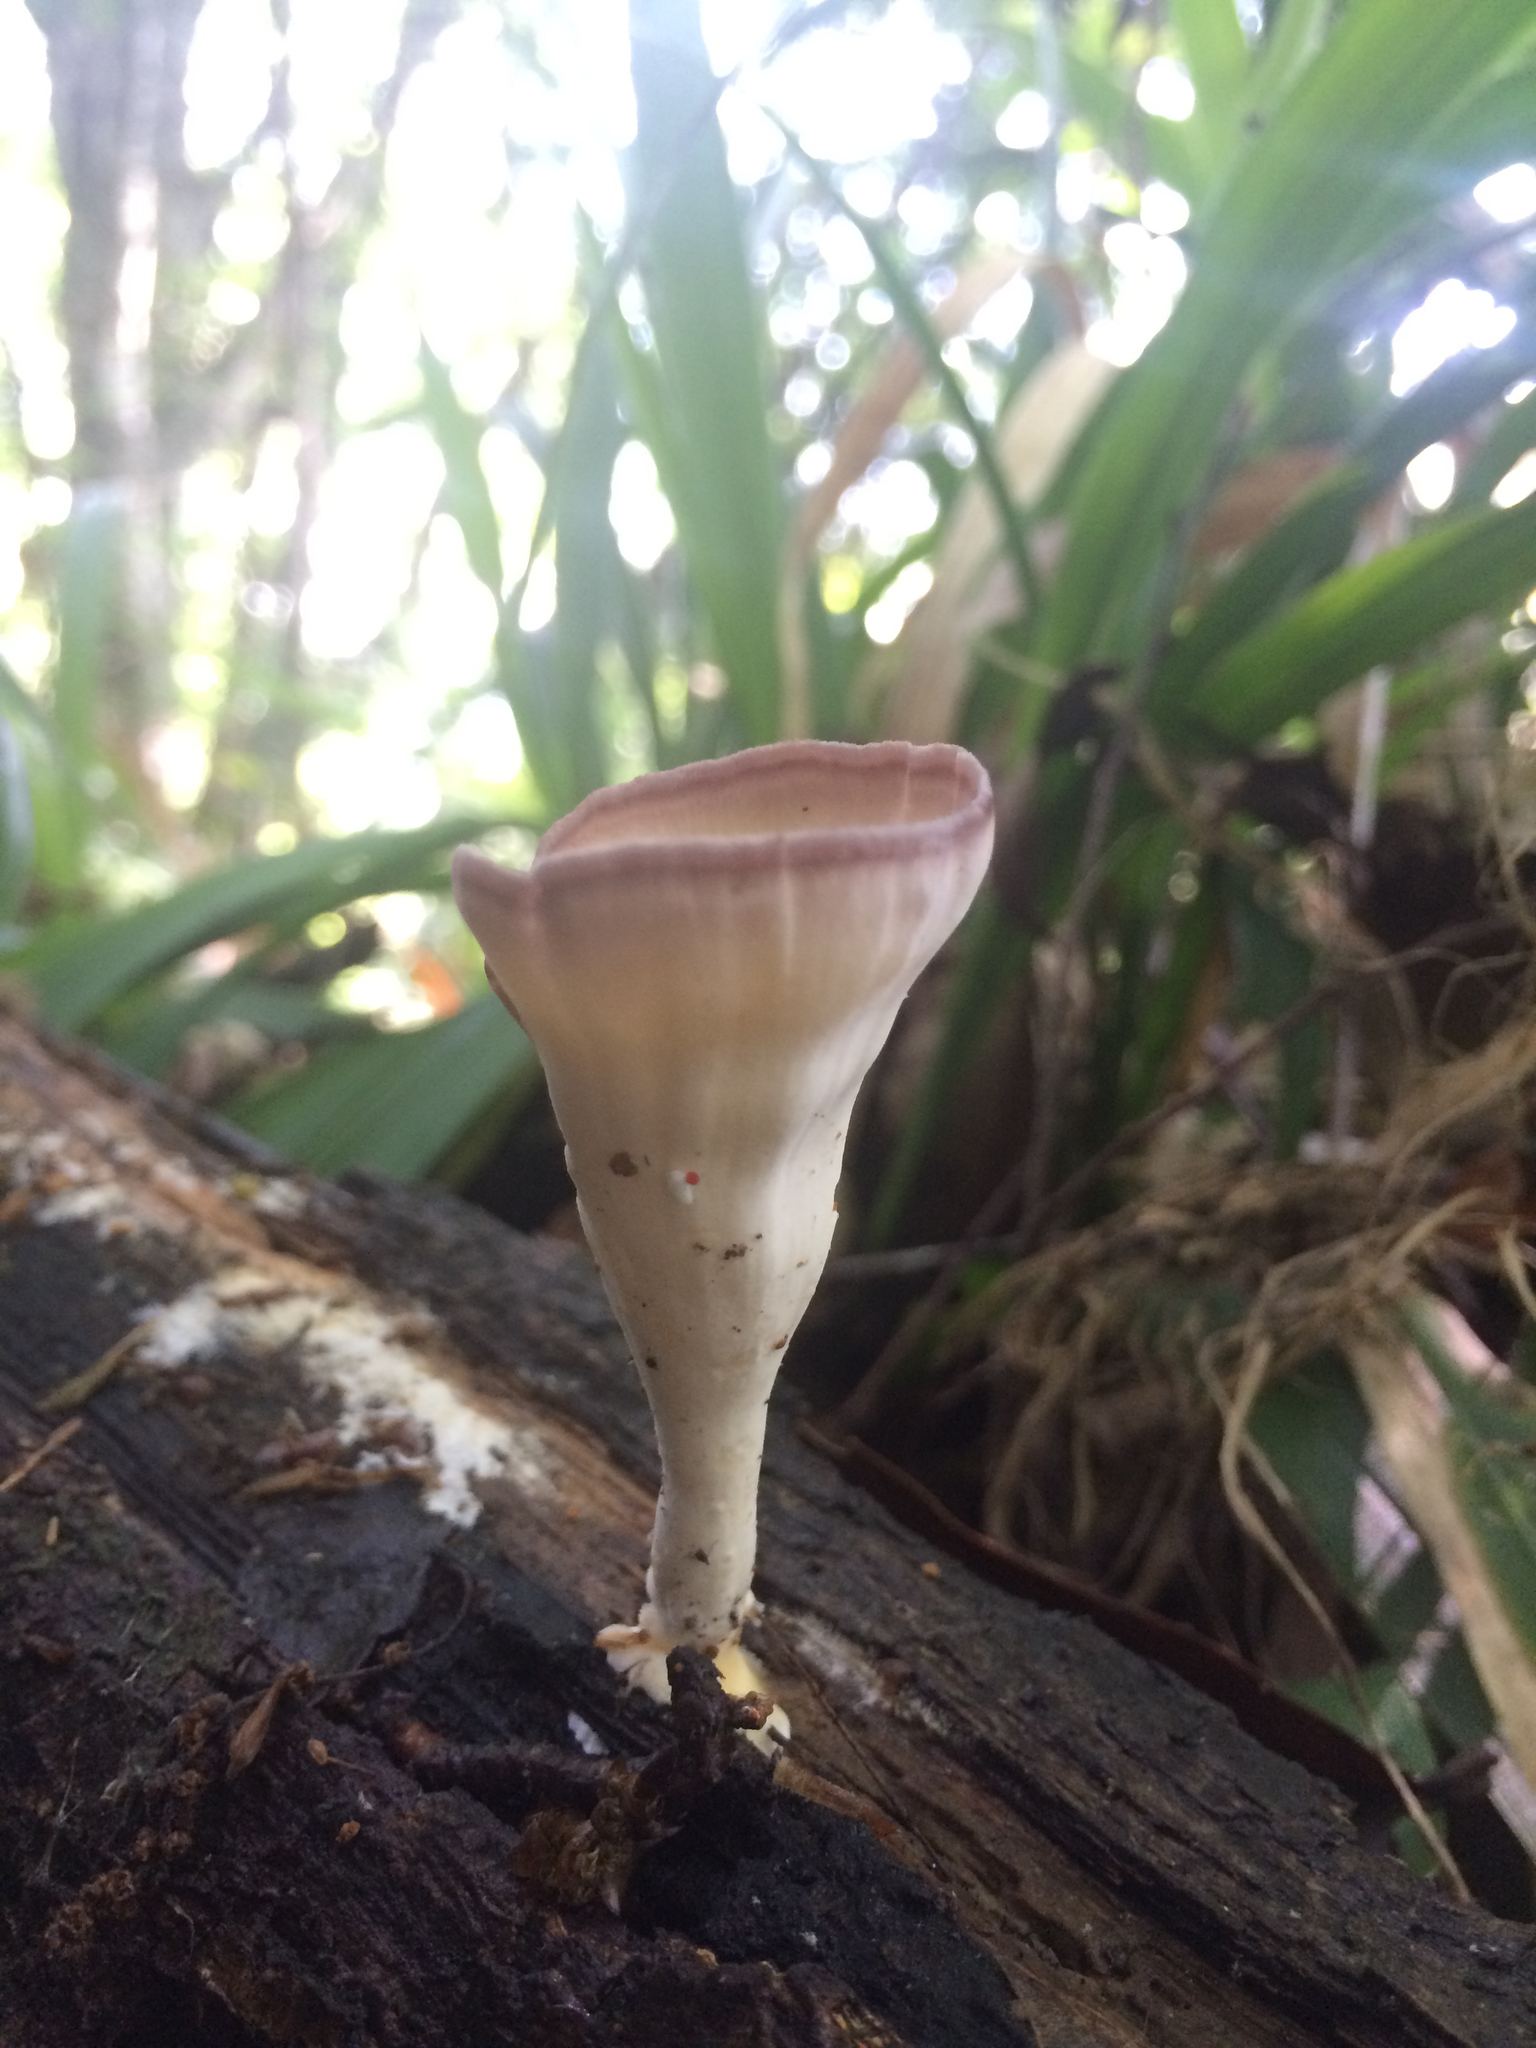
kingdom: Fungi
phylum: Basidiomycota
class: Agaricomycetes
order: Polyporales
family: Panaceae
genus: Cymatoderma
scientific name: Cymatoderma caperatum
